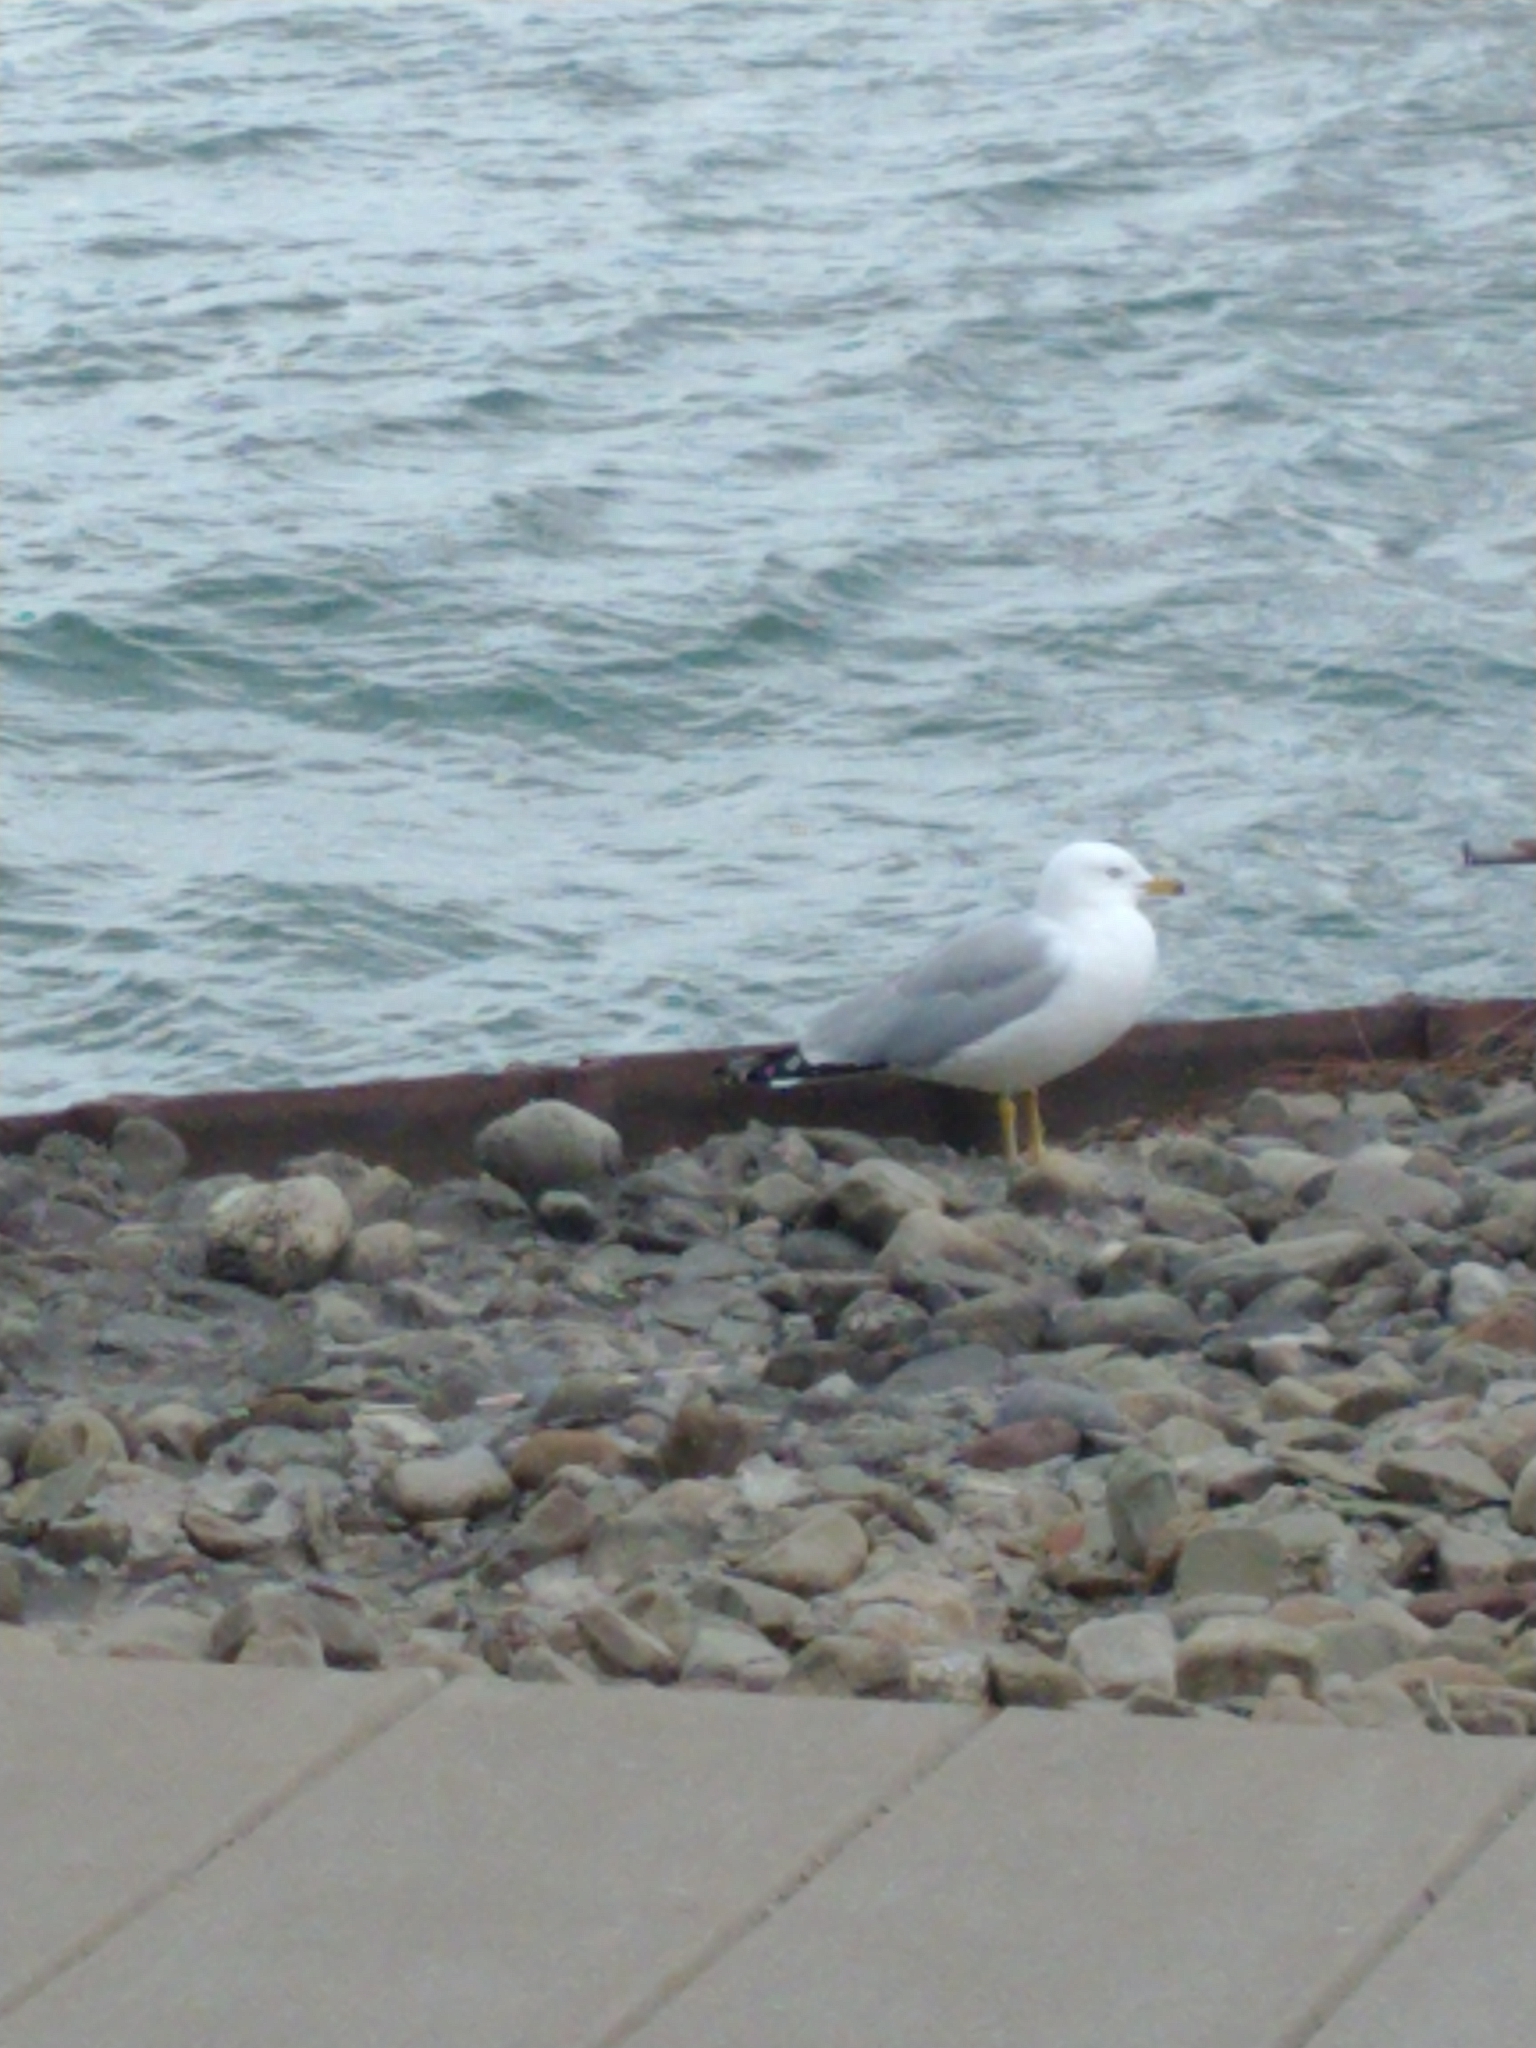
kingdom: Animalia
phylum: Chordata
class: Aves
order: Charadriiformes
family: Laridae
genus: Larus
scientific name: Larus delawarensis
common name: Ring-billed gull
